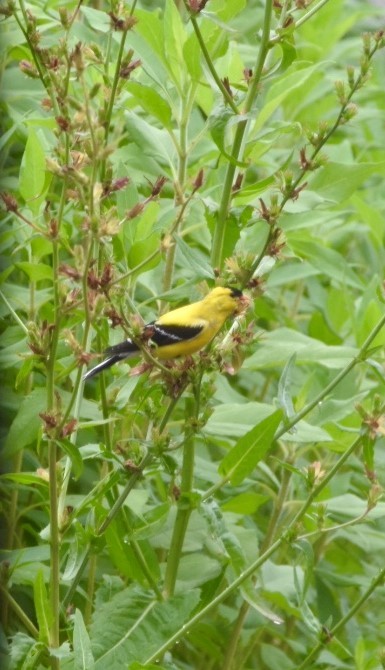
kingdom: Animalia
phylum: Chordata
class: Aves
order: Passeriformes
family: Fringillidae
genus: Spinus
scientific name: Spinus tristis
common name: American goldfinch
